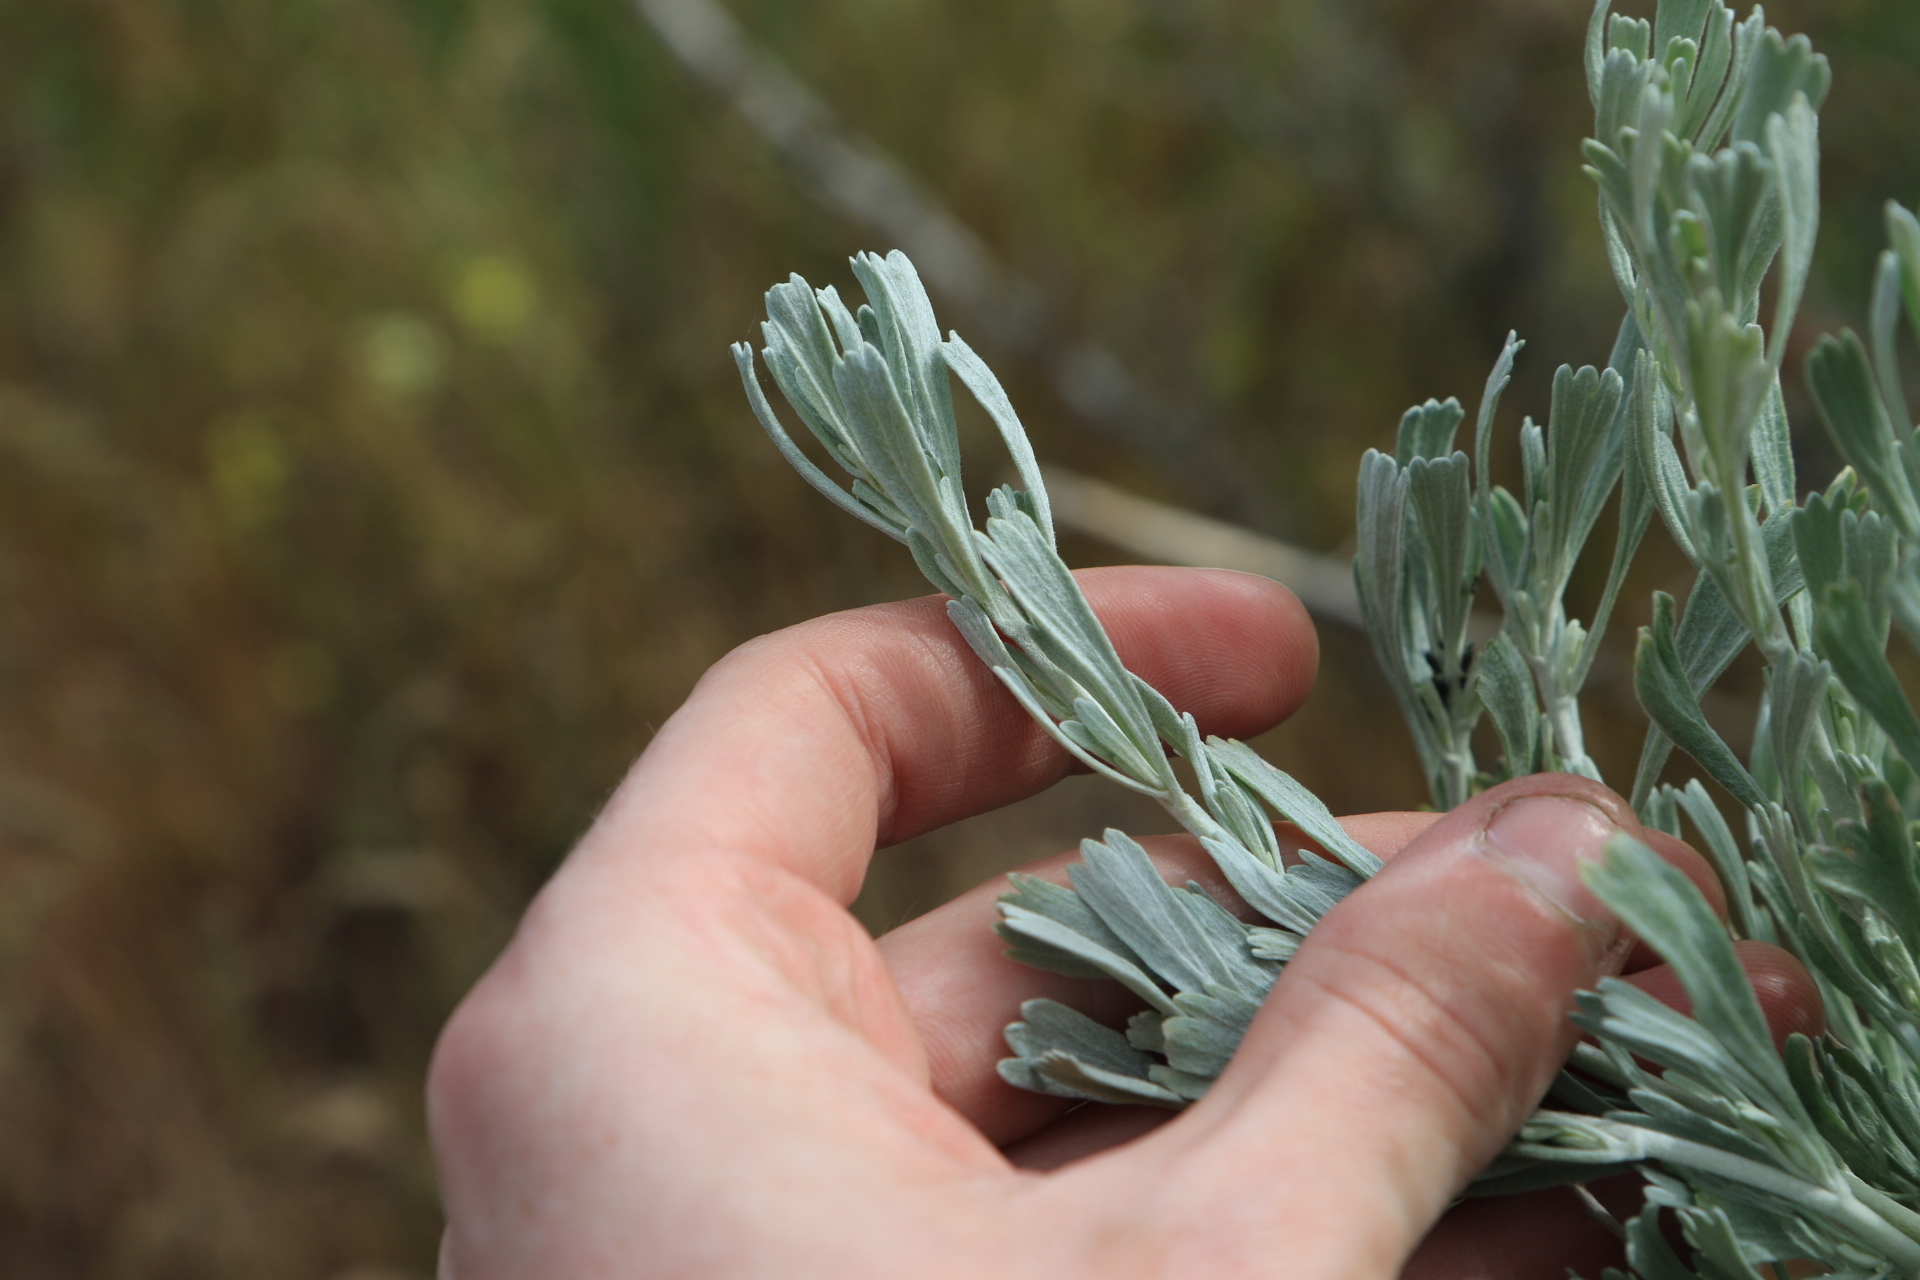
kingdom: Plantae
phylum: Tracheophyta
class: Magnoliopsida
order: Asterales
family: Asteraceae
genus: Artemisia
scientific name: Artemisia tridentata
